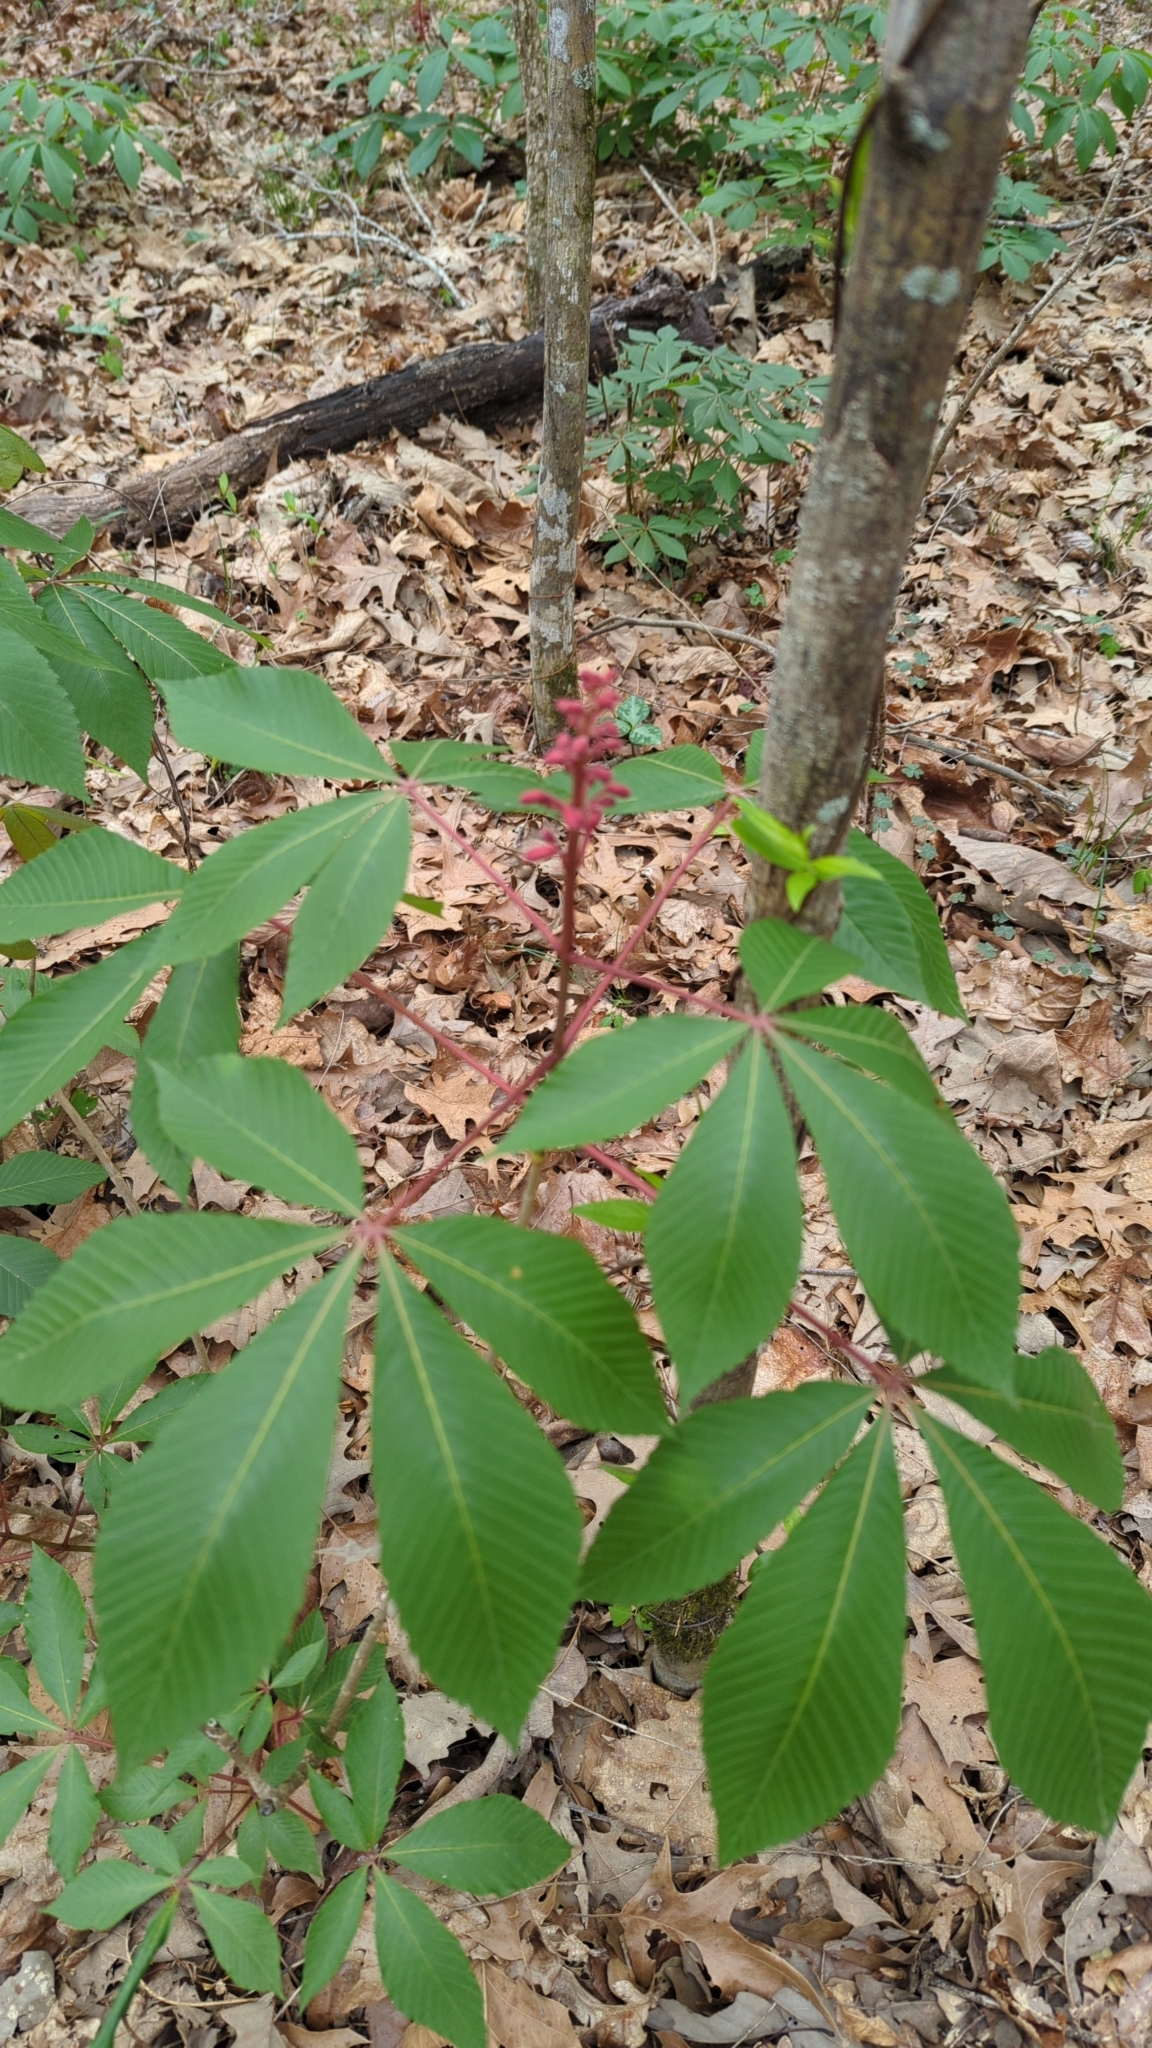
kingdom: Plantae
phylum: Tracheophyta
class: Magnoliopsida
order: Sapindales
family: Sapindaceae
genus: Aesculus
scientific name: Aesculus pavia
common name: Red buckeye
